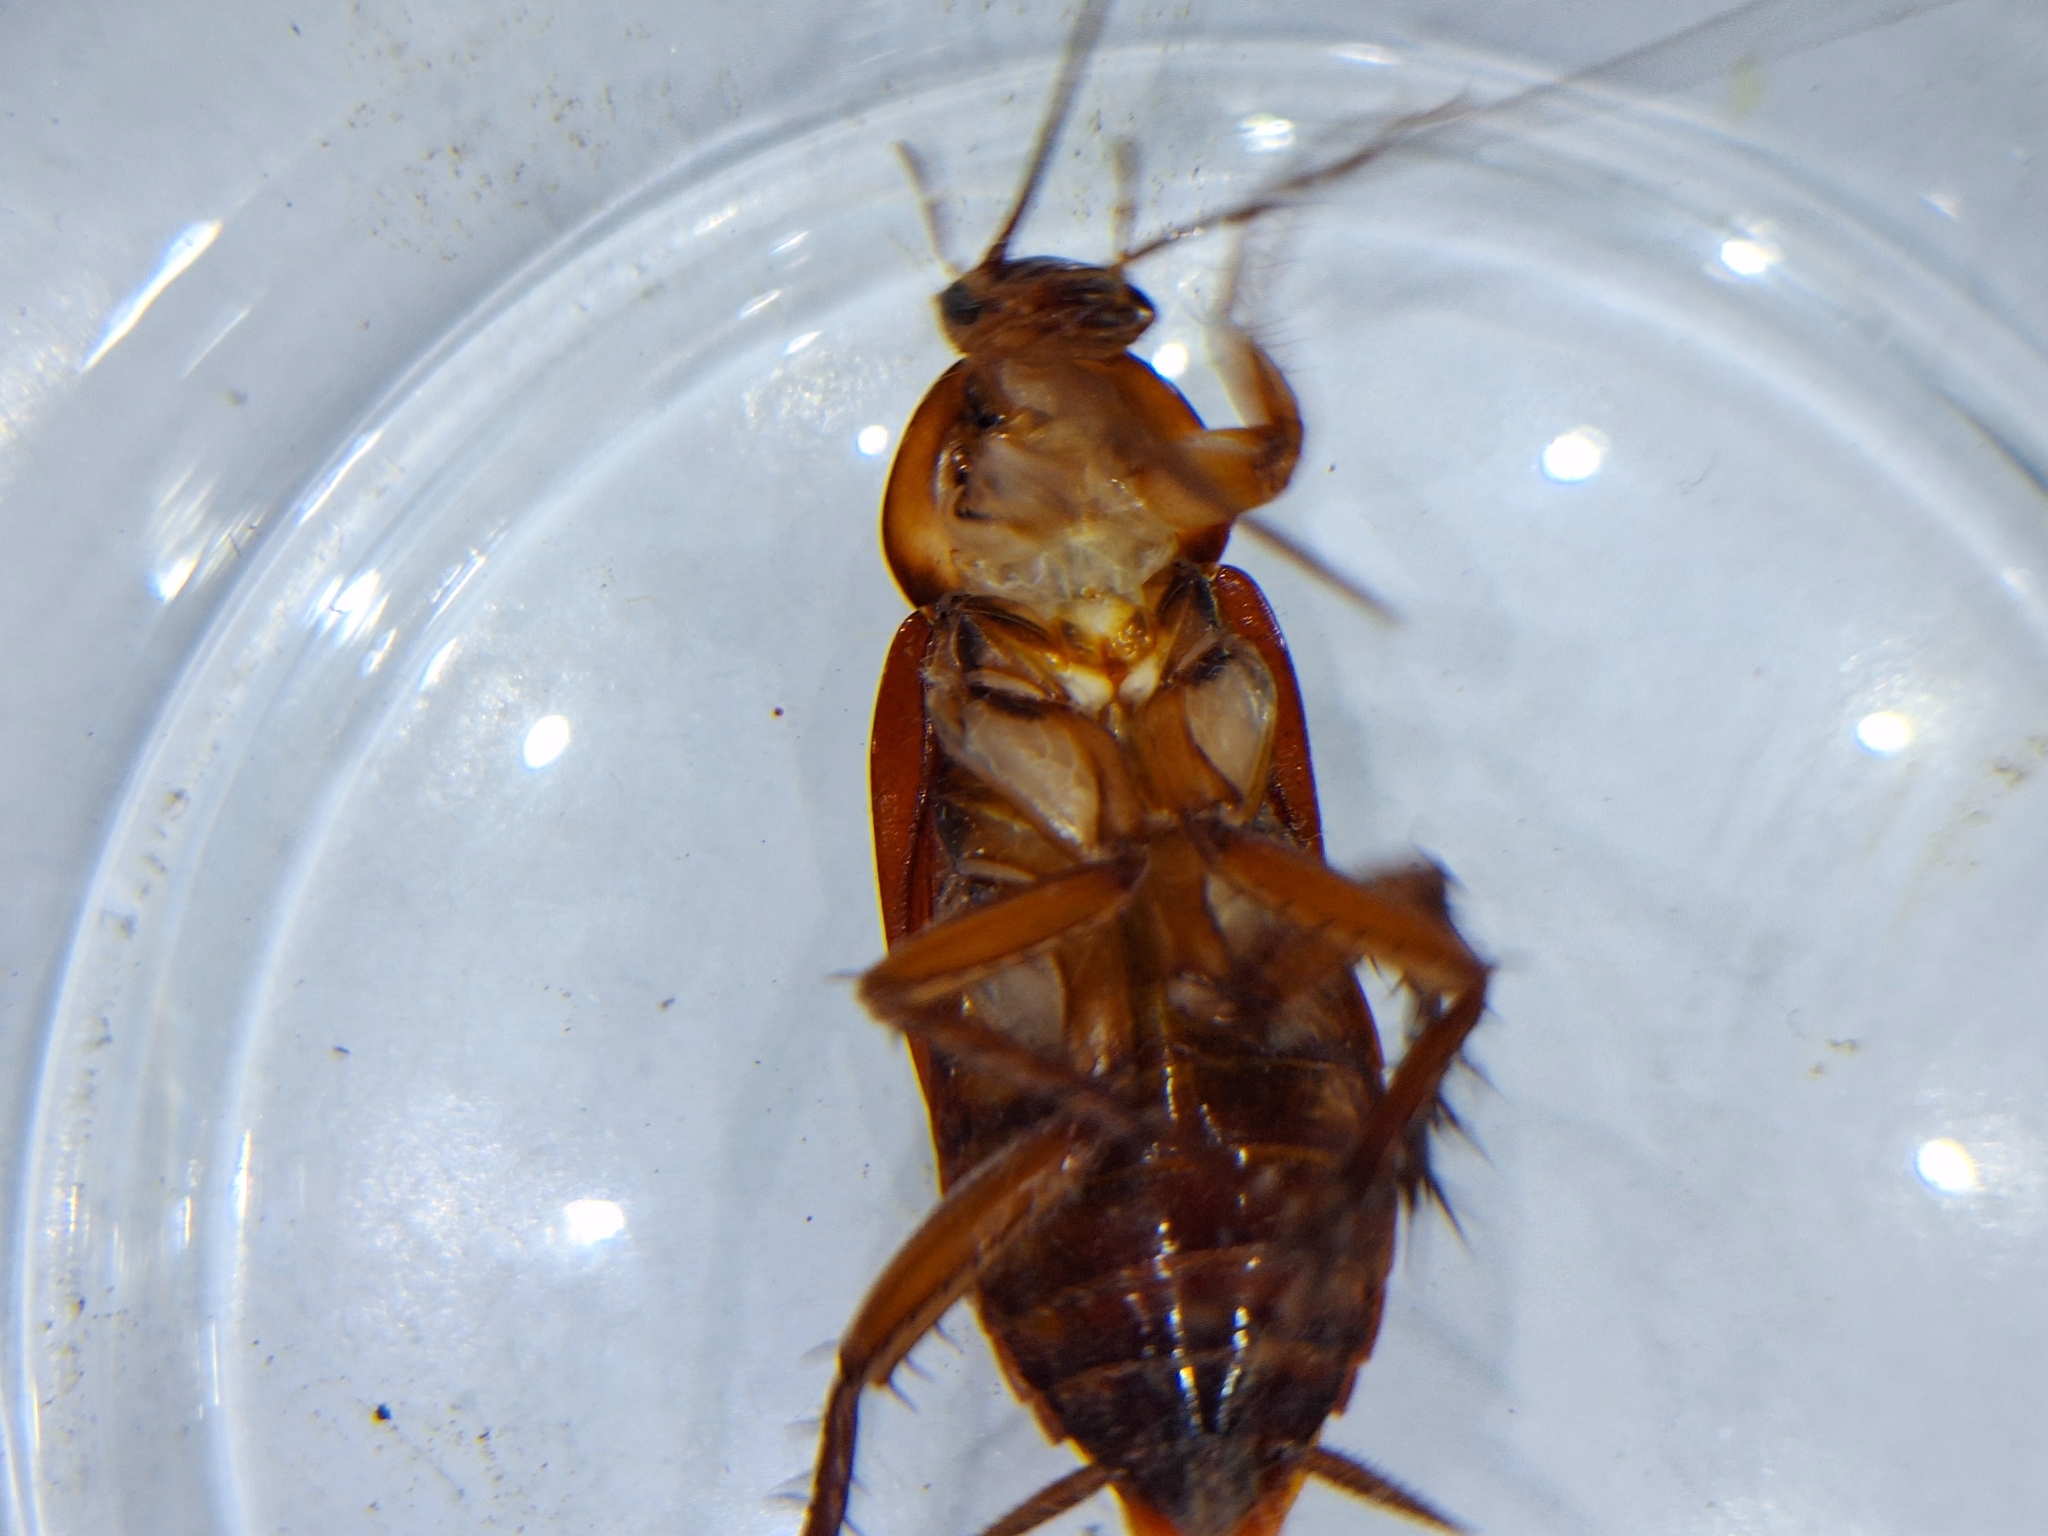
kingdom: Animalia
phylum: Arthropoda
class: Insecta
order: Blattodea
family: Blattidae
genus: Periplaneta
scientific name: Periplaneta americana
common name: American cockroach
